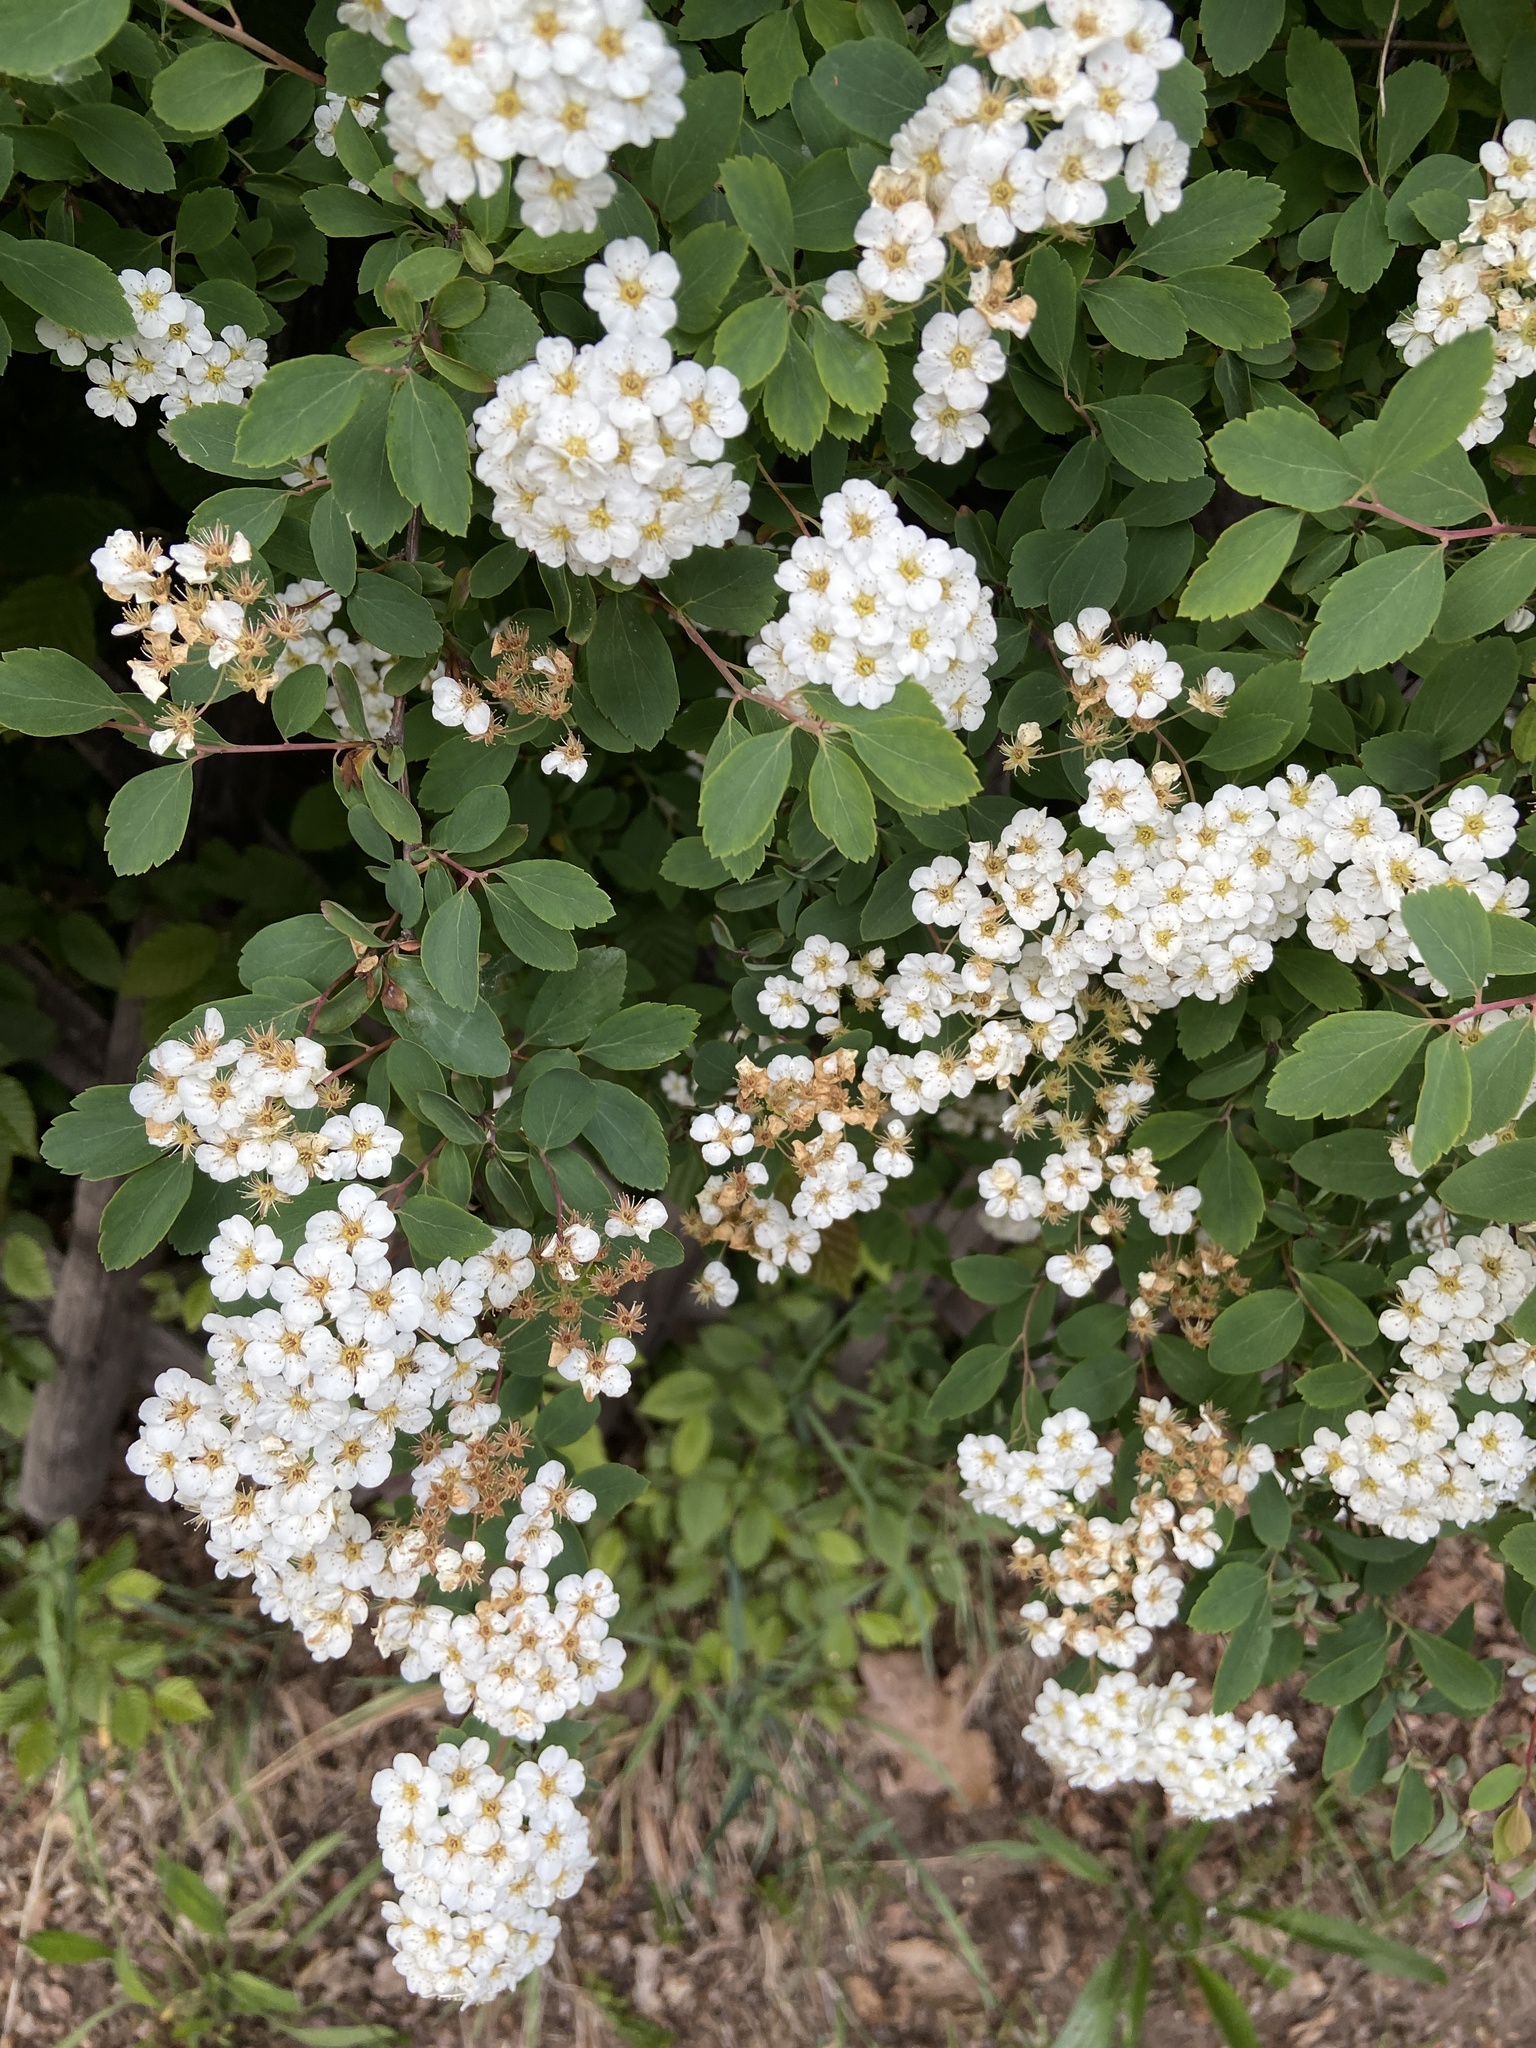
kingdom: Plantae
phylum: Tracheophyta
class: Magnoliopsida
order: Rosales
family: Rosaceae
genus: Spiraea
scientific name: Spiraea vanhouttei
